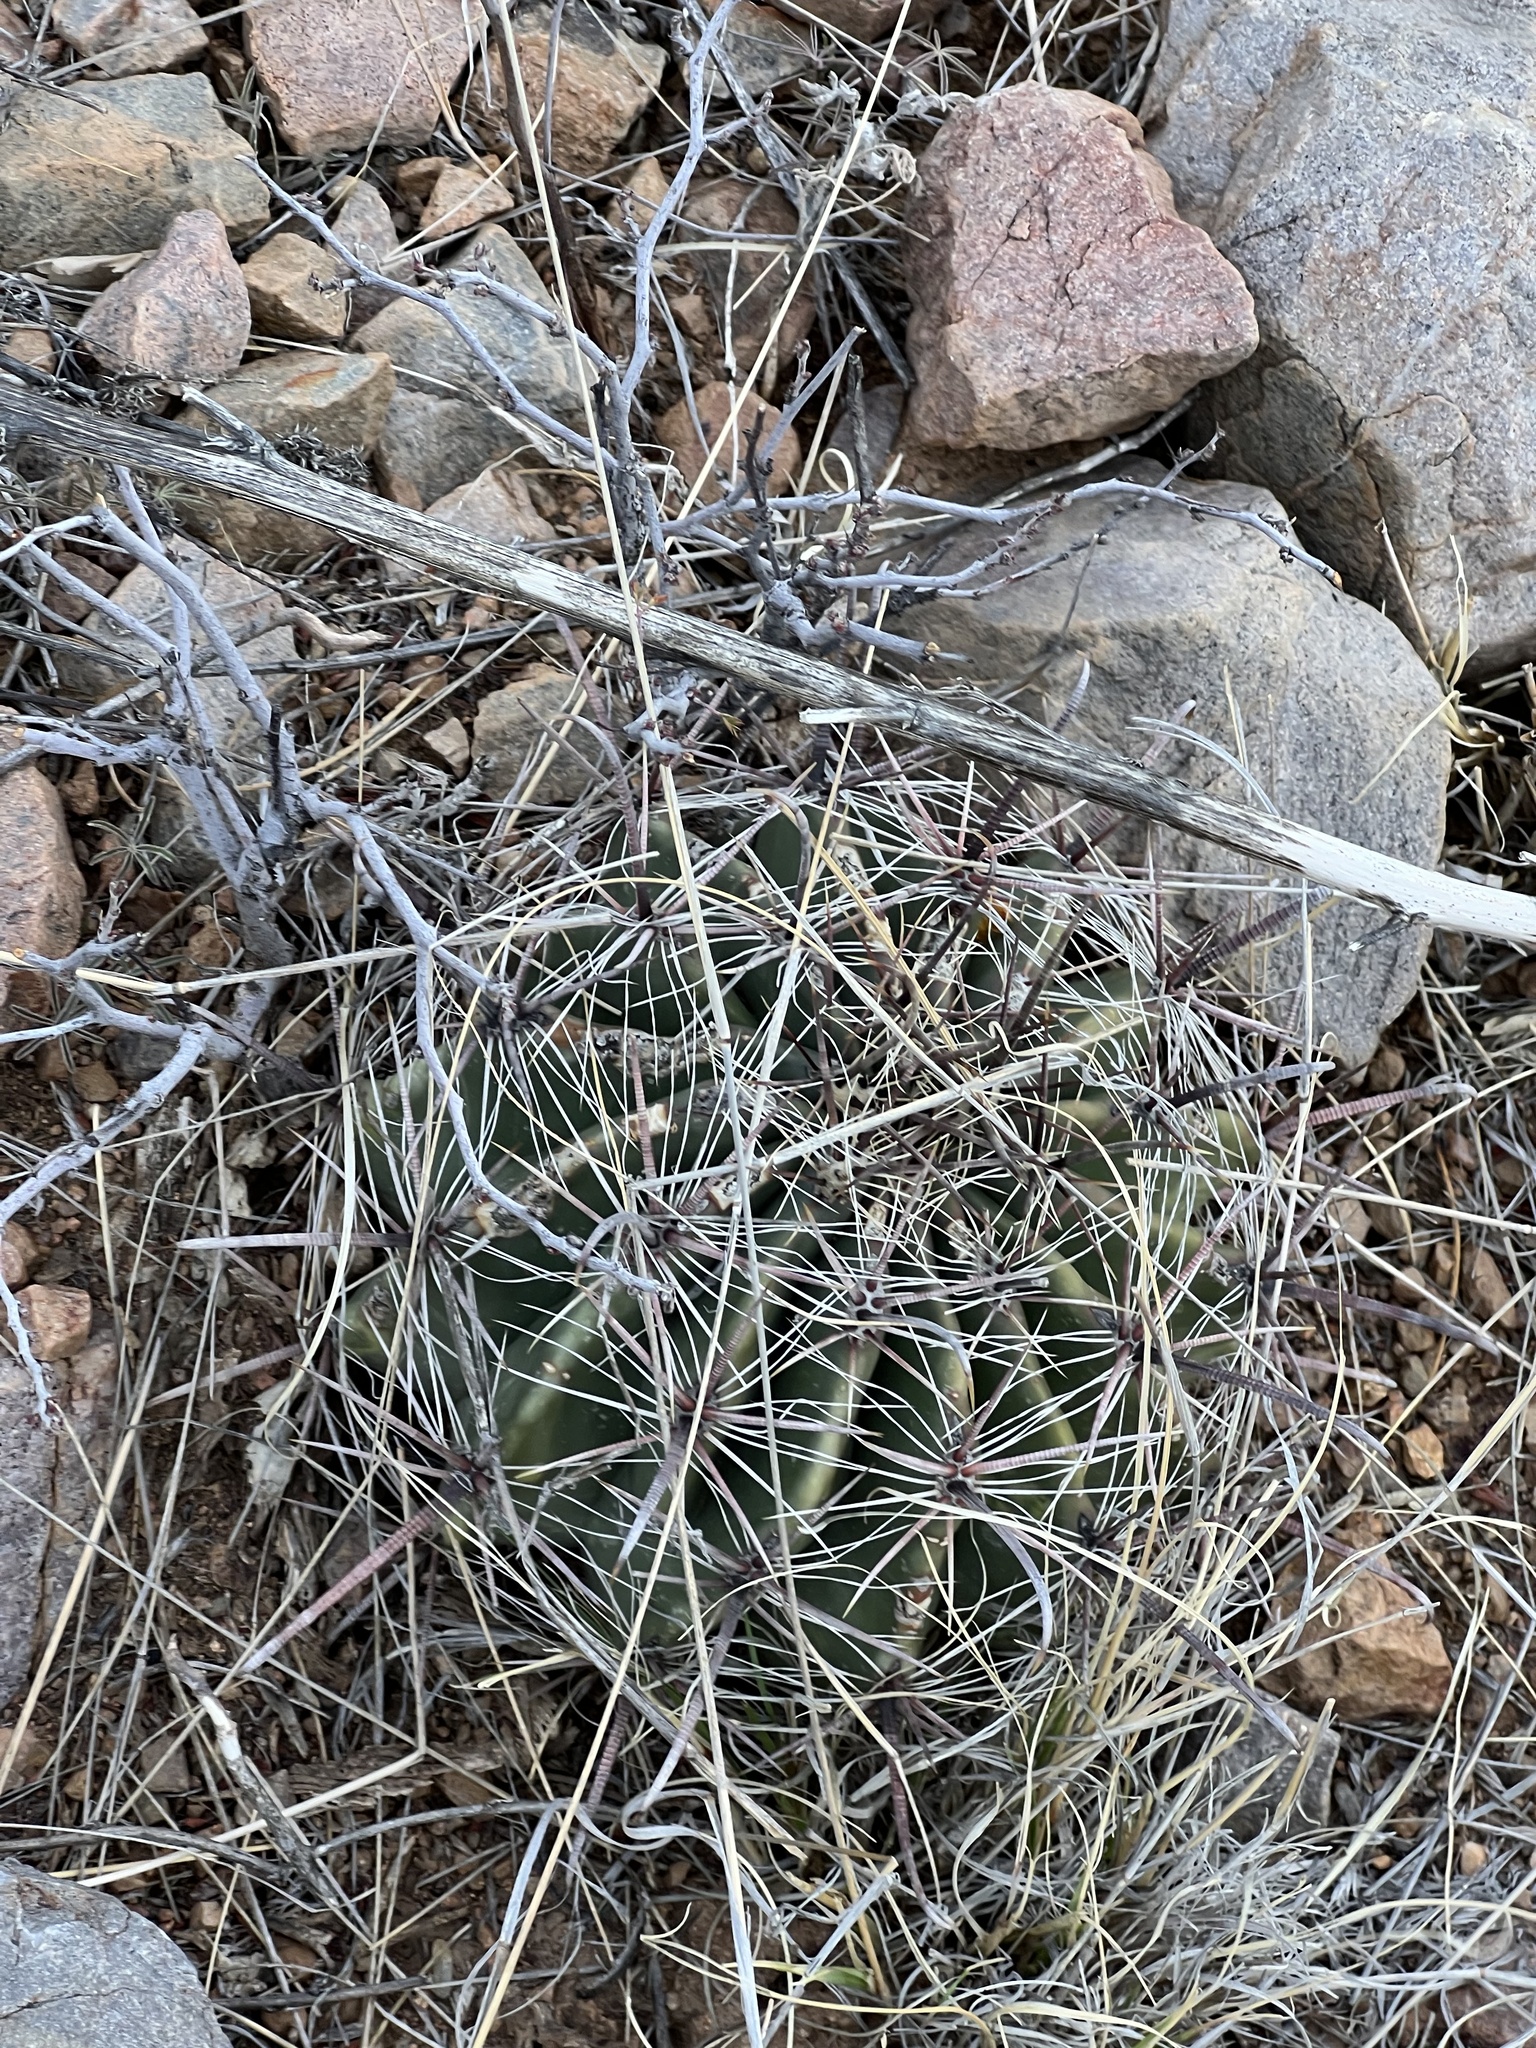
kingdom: Plantae
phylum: Tracheophyta
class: Magnoliopsida
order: Caryophyllales
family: Cactaceae
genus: Ferocactus
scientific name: Ferocactus wislizeni
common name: Candy barrel cactus
